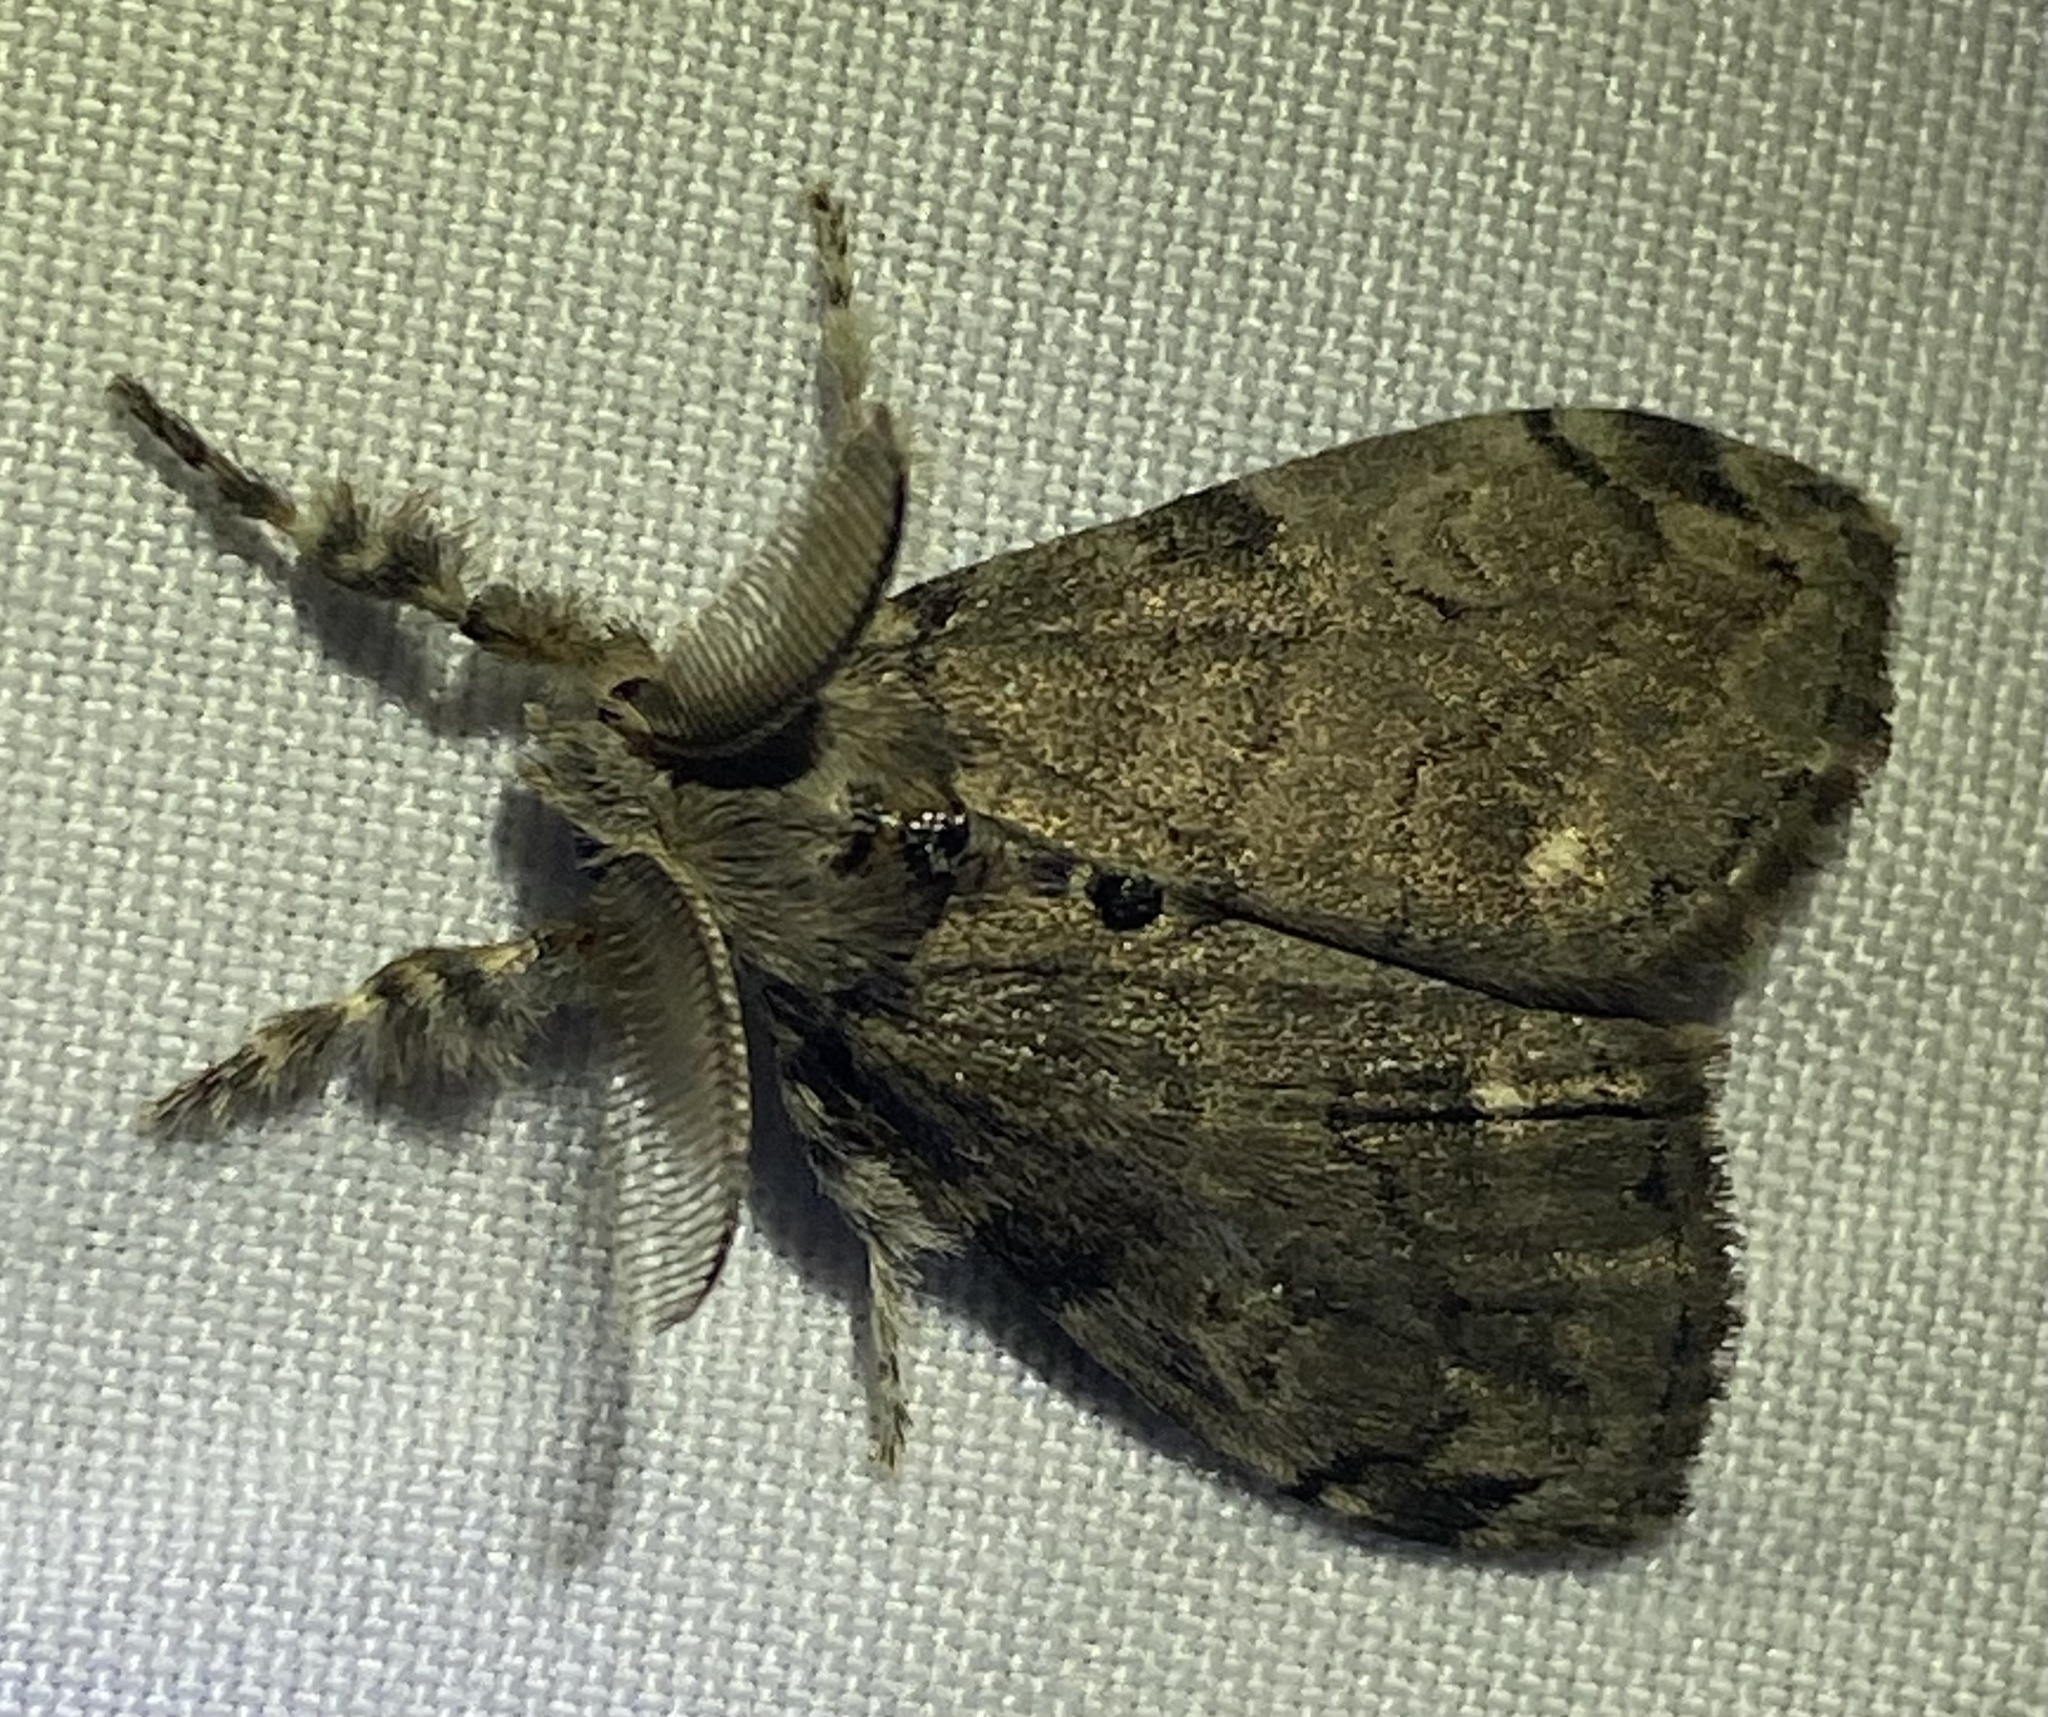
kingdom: Animalia
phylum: Arthropoda
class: Insecta
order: Lepidoptera
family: Erebidae
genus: Orgyia
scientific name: Orgyia leucostigma
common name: White-marked tussock moth
